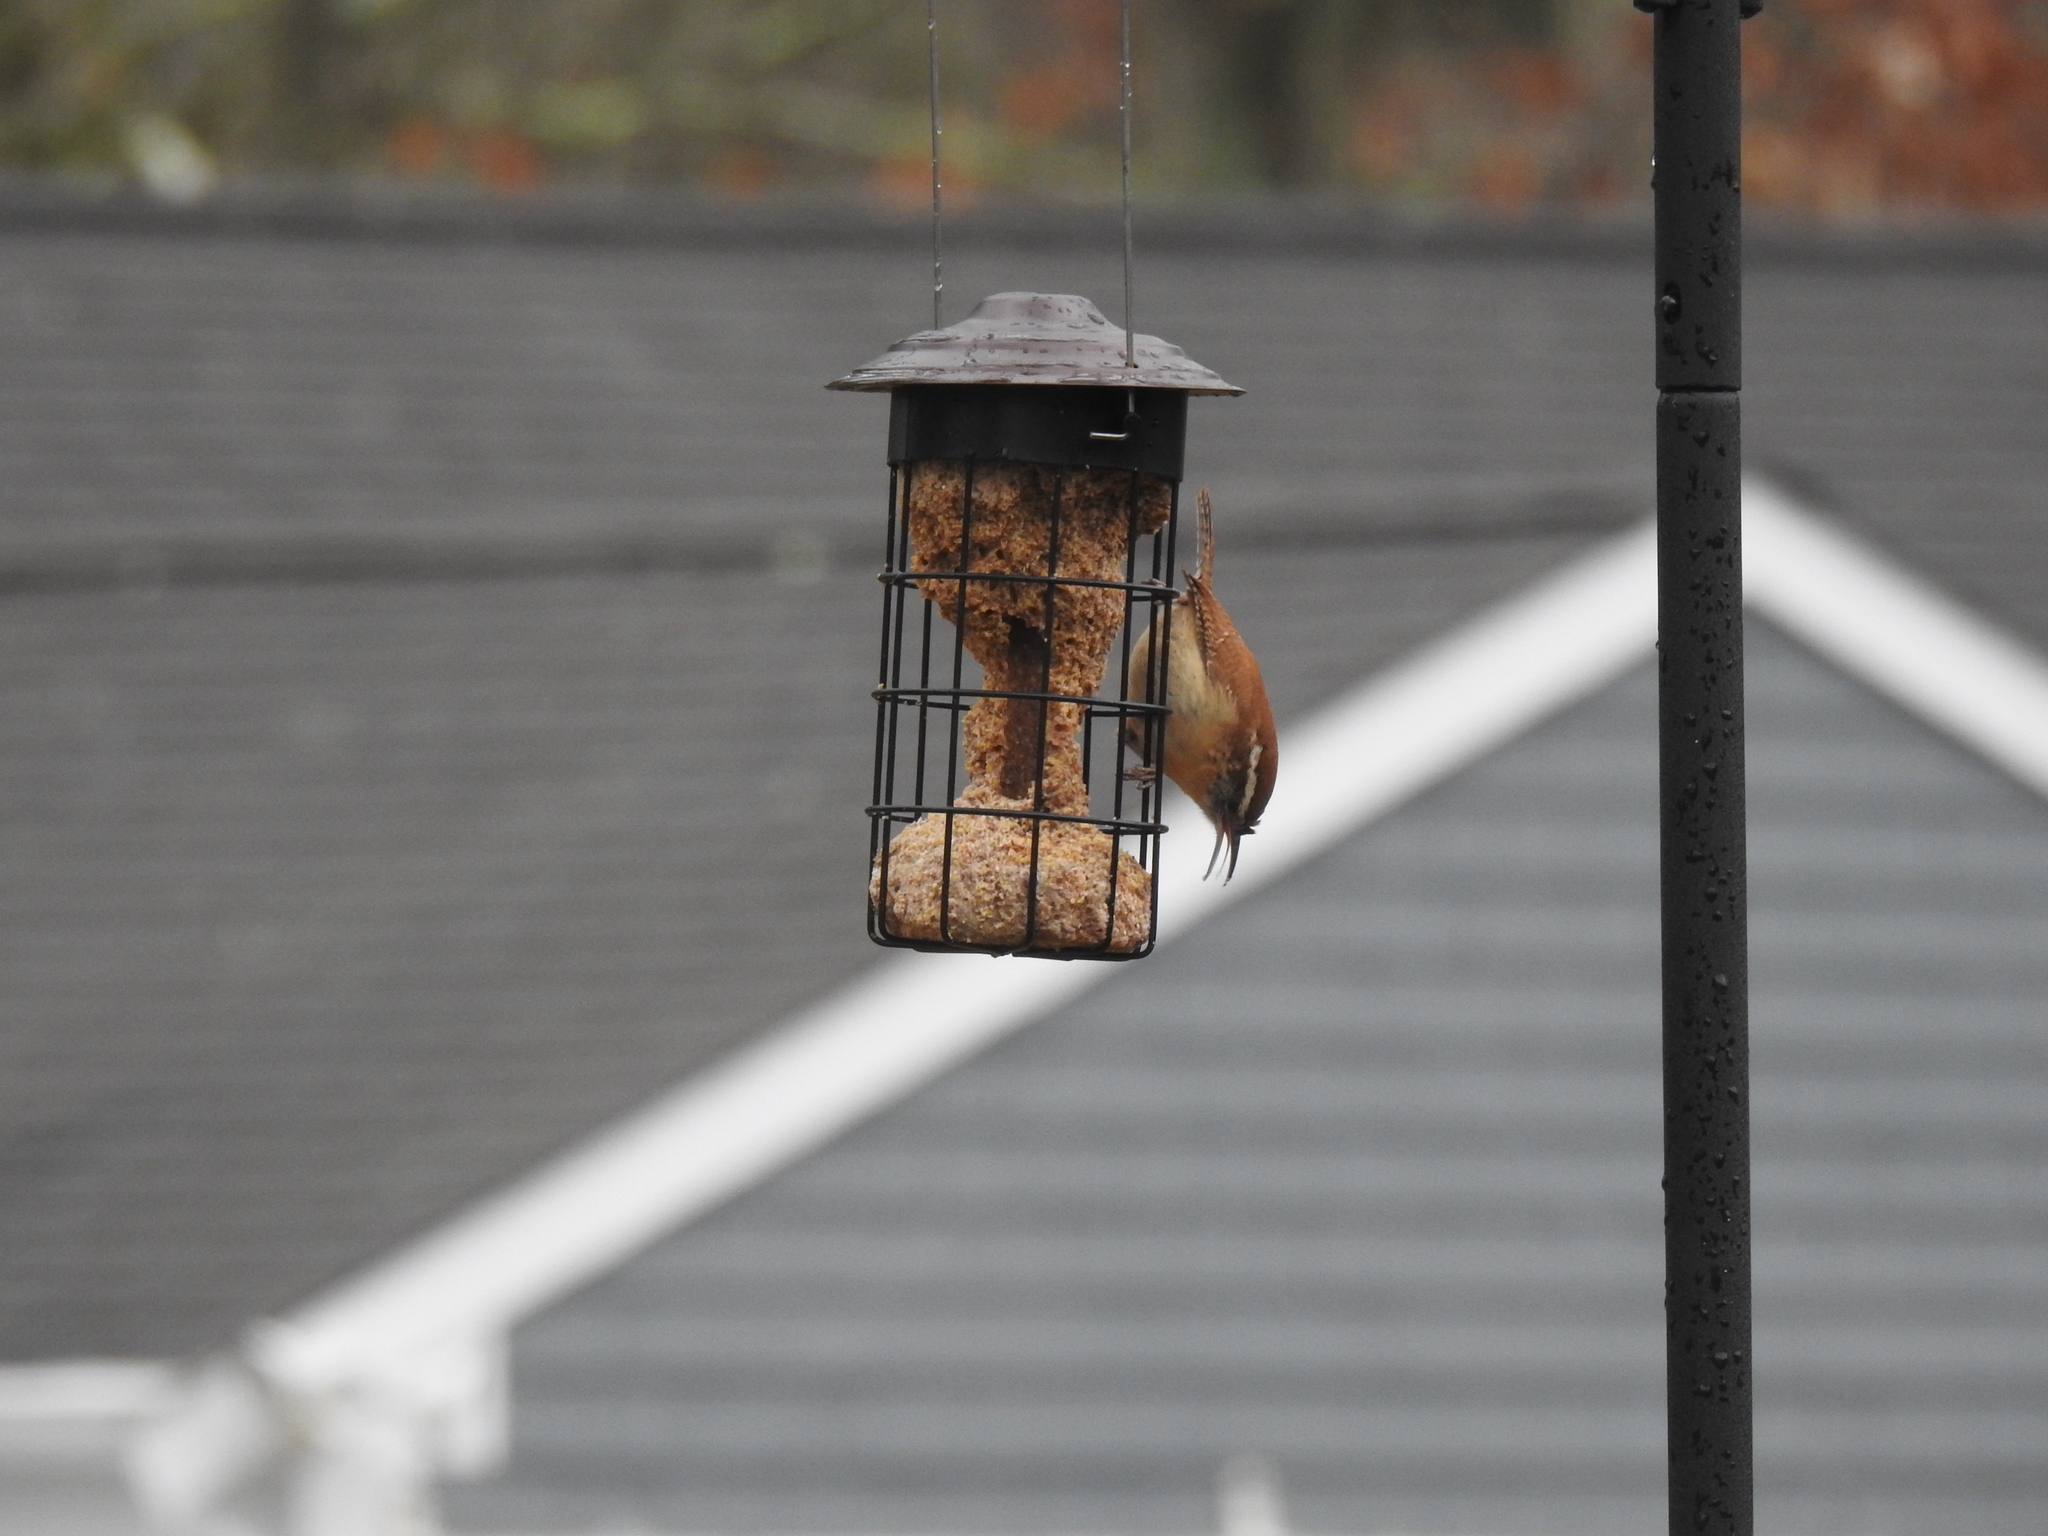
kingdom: Animalia
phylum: Chordata
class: Aves
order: Passeriformes
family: Troglodytidae
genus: Thryothorus
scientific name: Thryothorus ludovicianus
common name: Carolina wren
